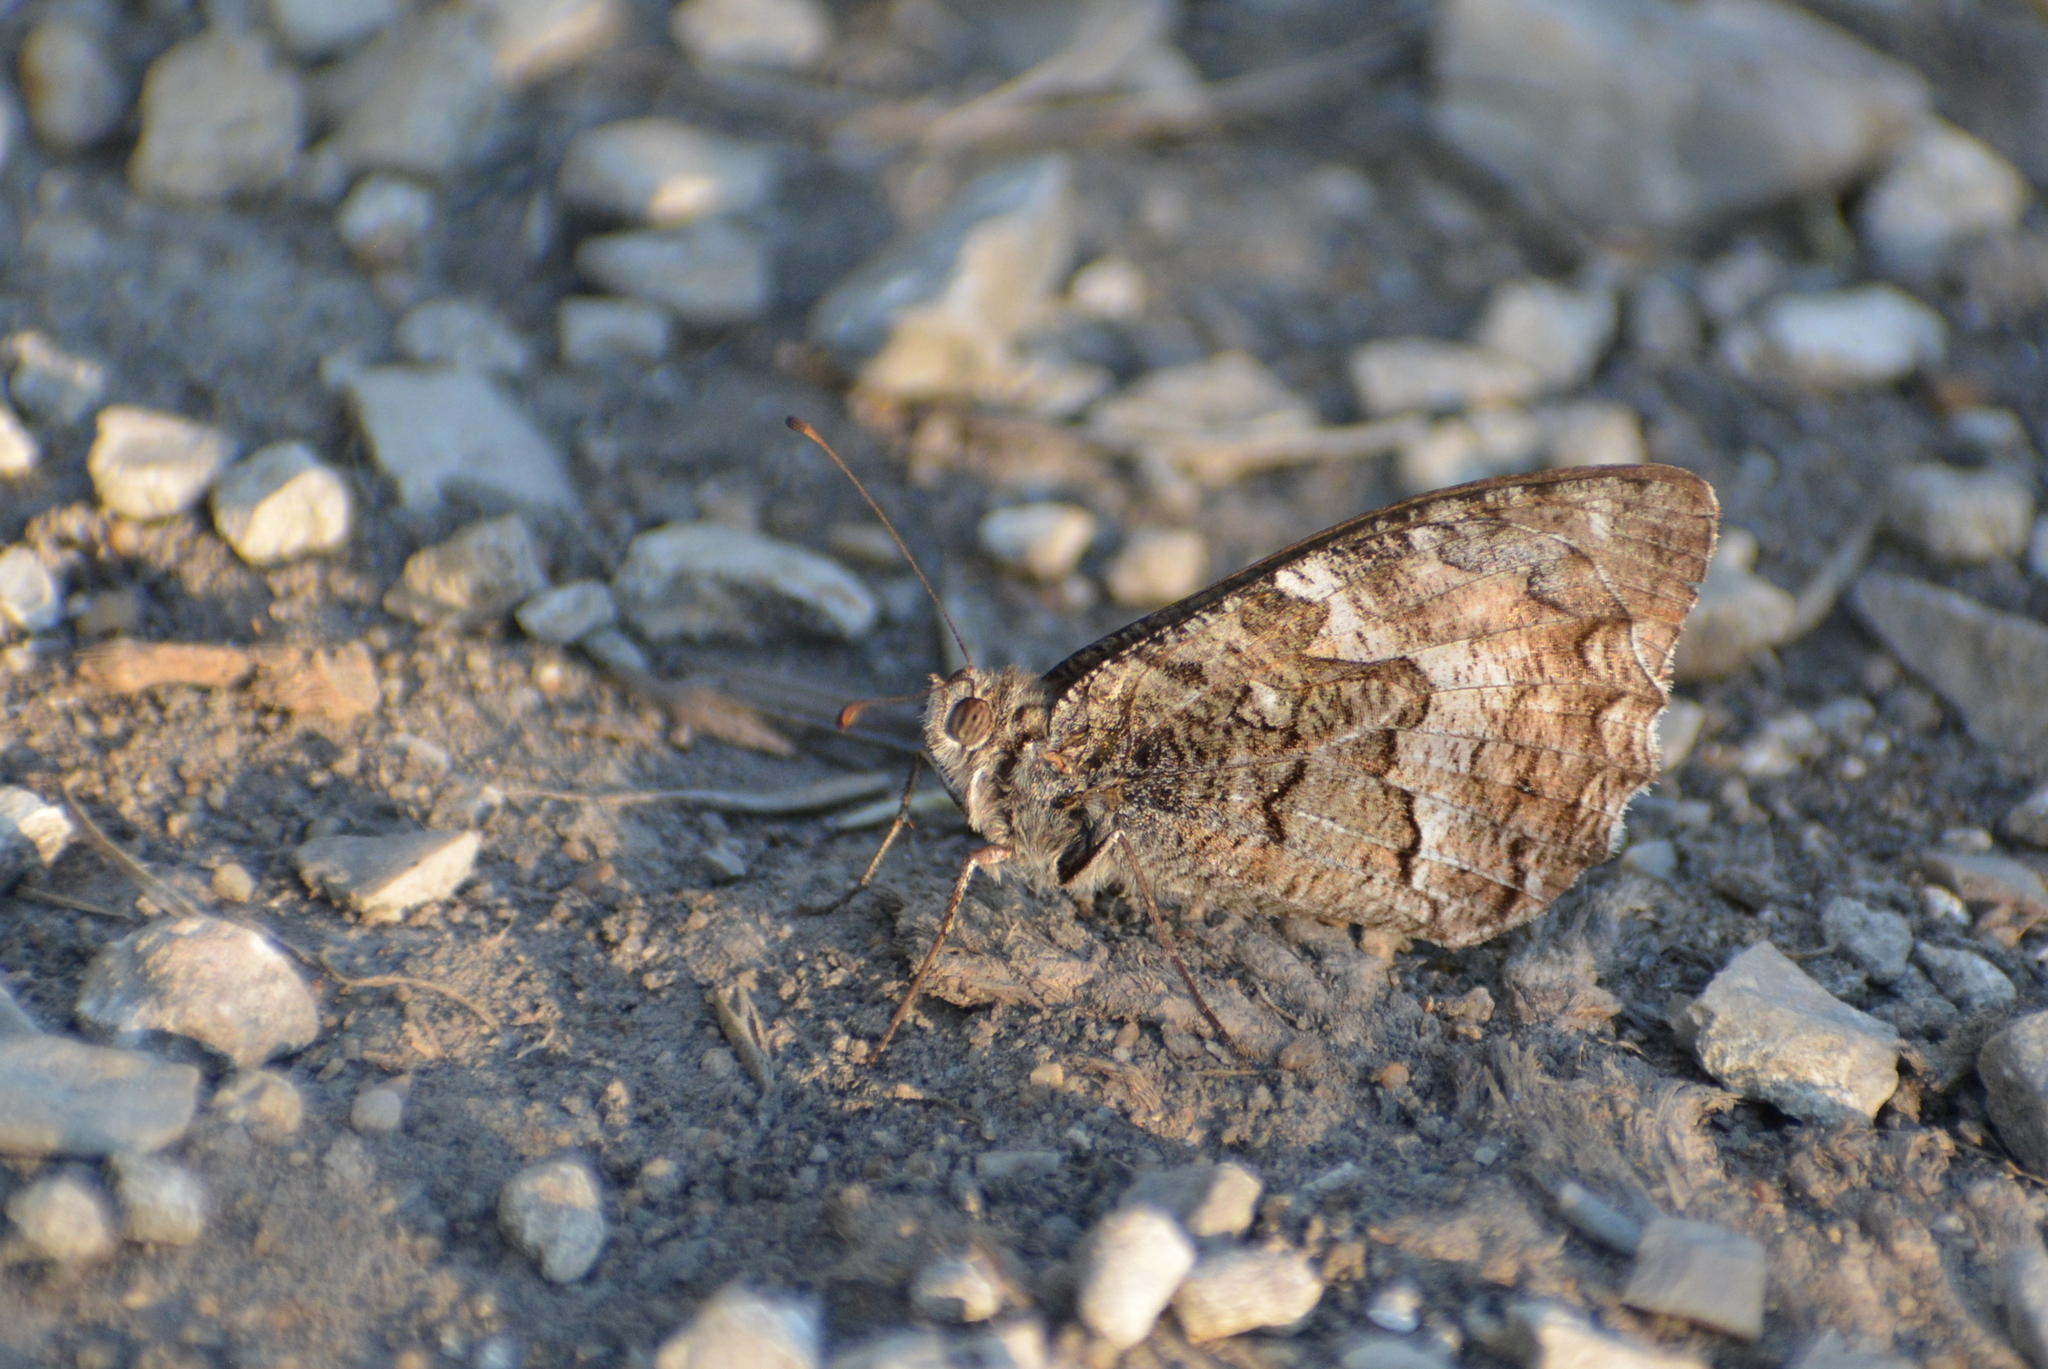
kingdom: Animalia
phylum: Arthropoda
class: Insecta
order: Lepidoptera
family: Nymphalidae
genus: Hipparchia
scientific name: Hipparchia semele
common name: Grayling
